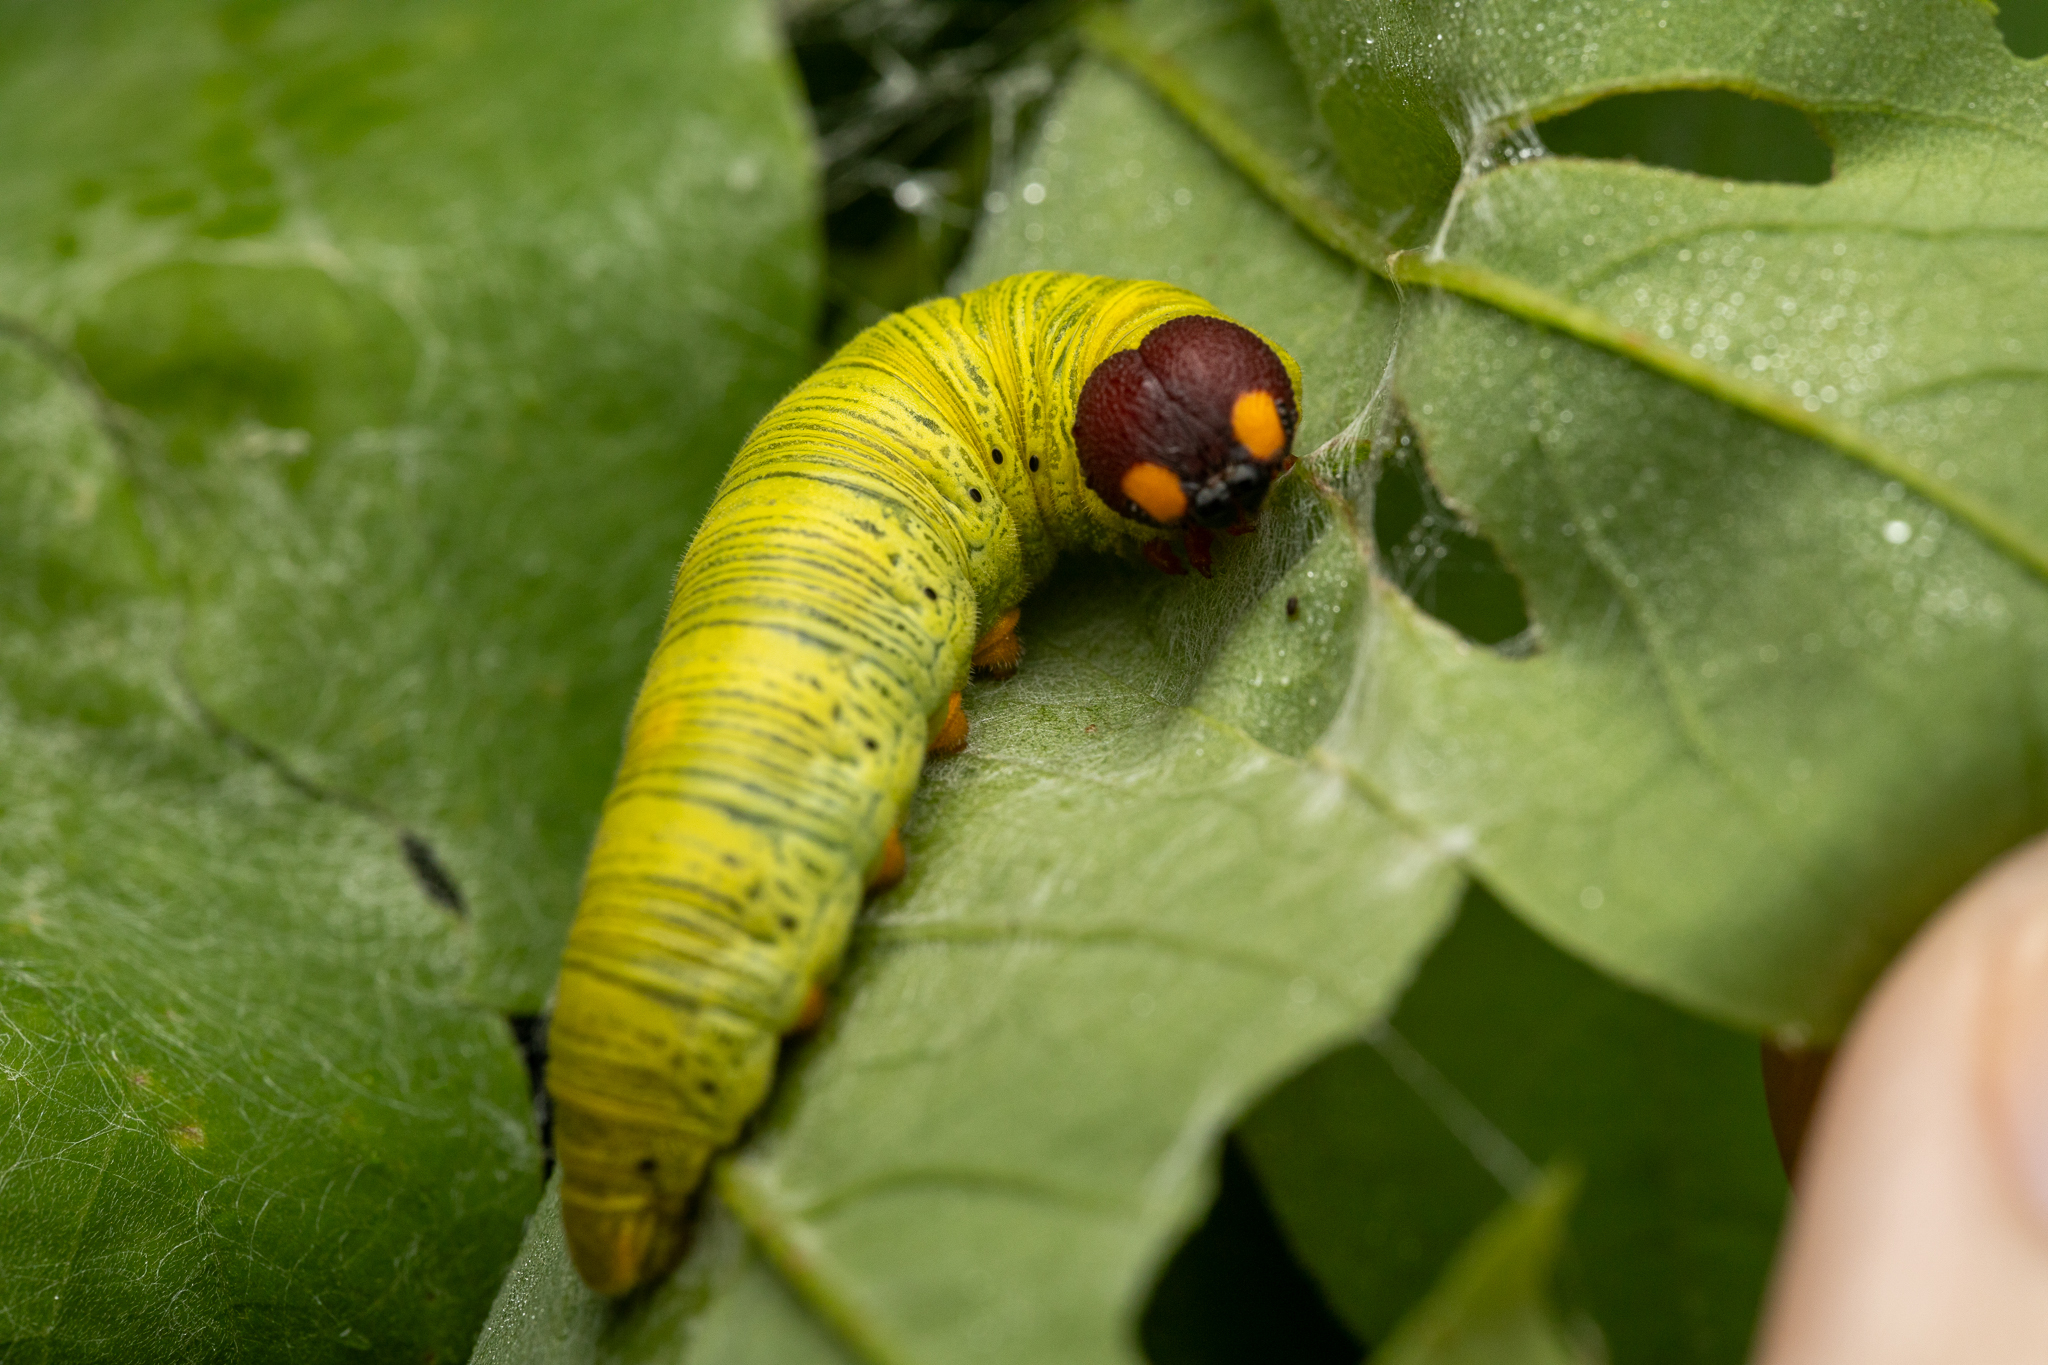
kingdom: Animalia
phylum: Arthropoda
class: Insecta
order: Lepidoptera
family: Hesperiidae
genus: Epargyreus
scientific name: Epargyreus clarus
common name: Silver-spotted skipper
